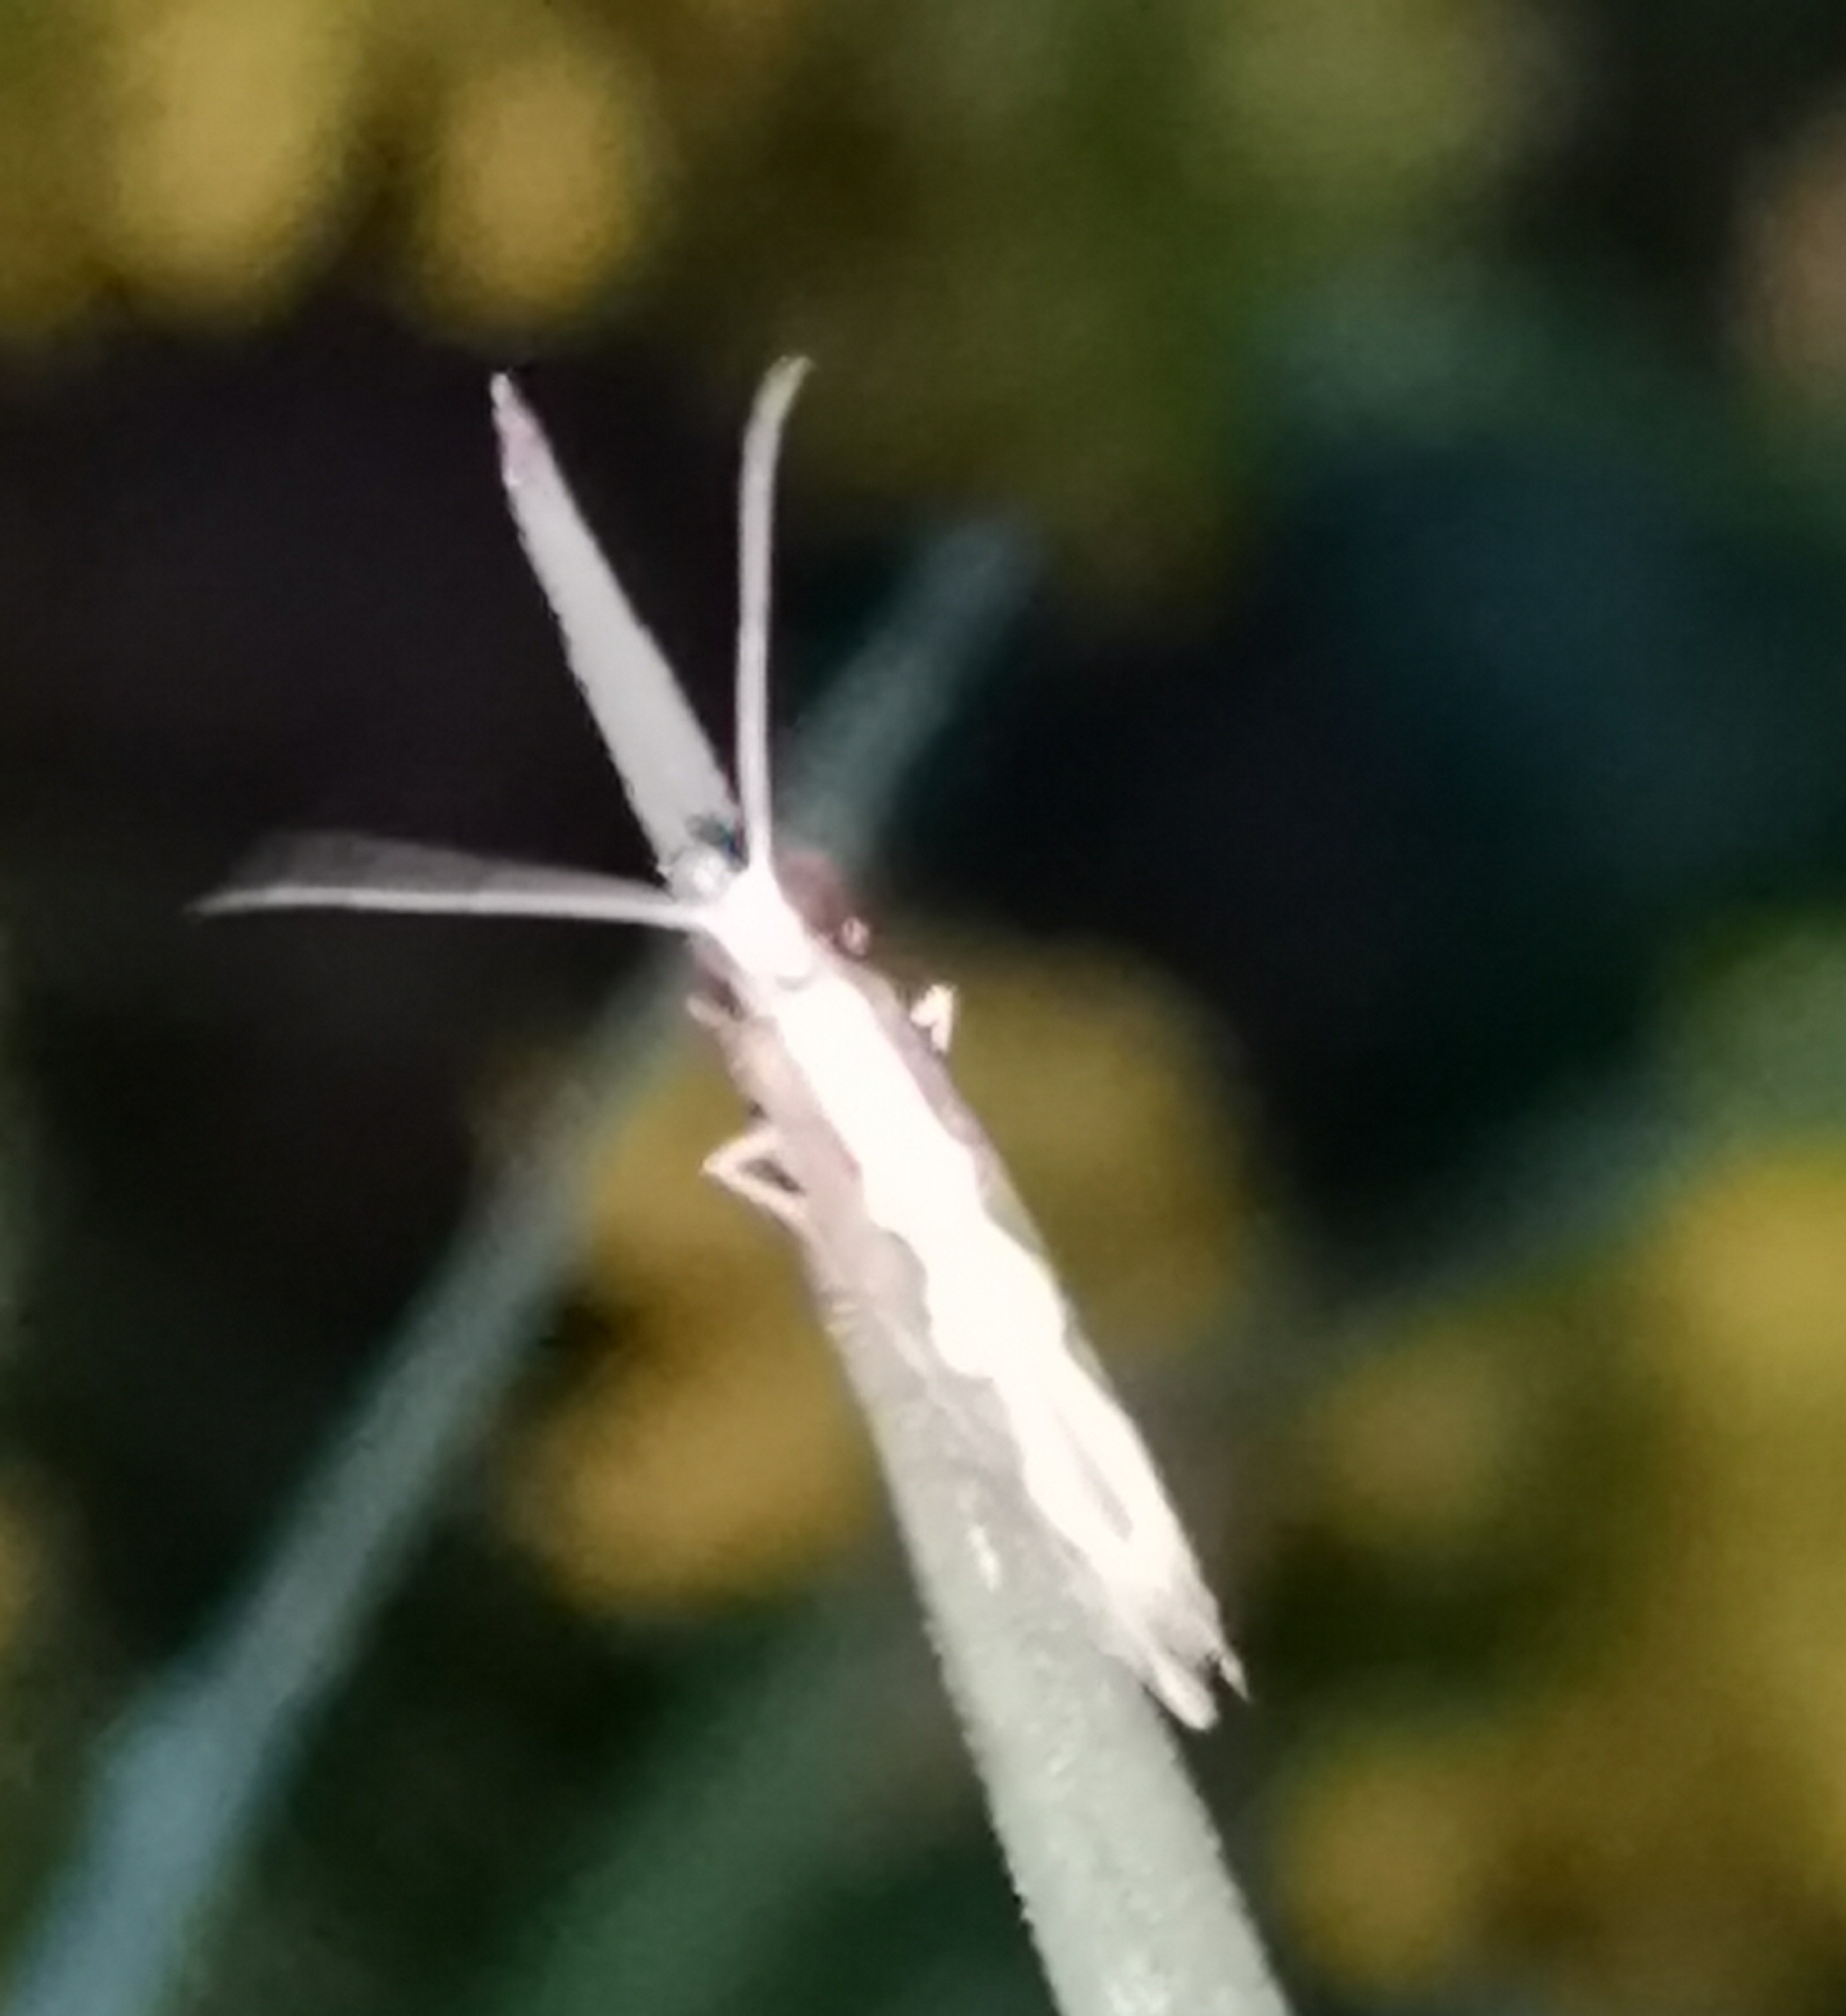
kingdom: Animalia
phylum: Arthropoda
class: Insecta
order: Lepidoptera
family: Plutellidae
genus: Plutella
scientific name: Plutella xylostella
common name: Diamond-back moth
